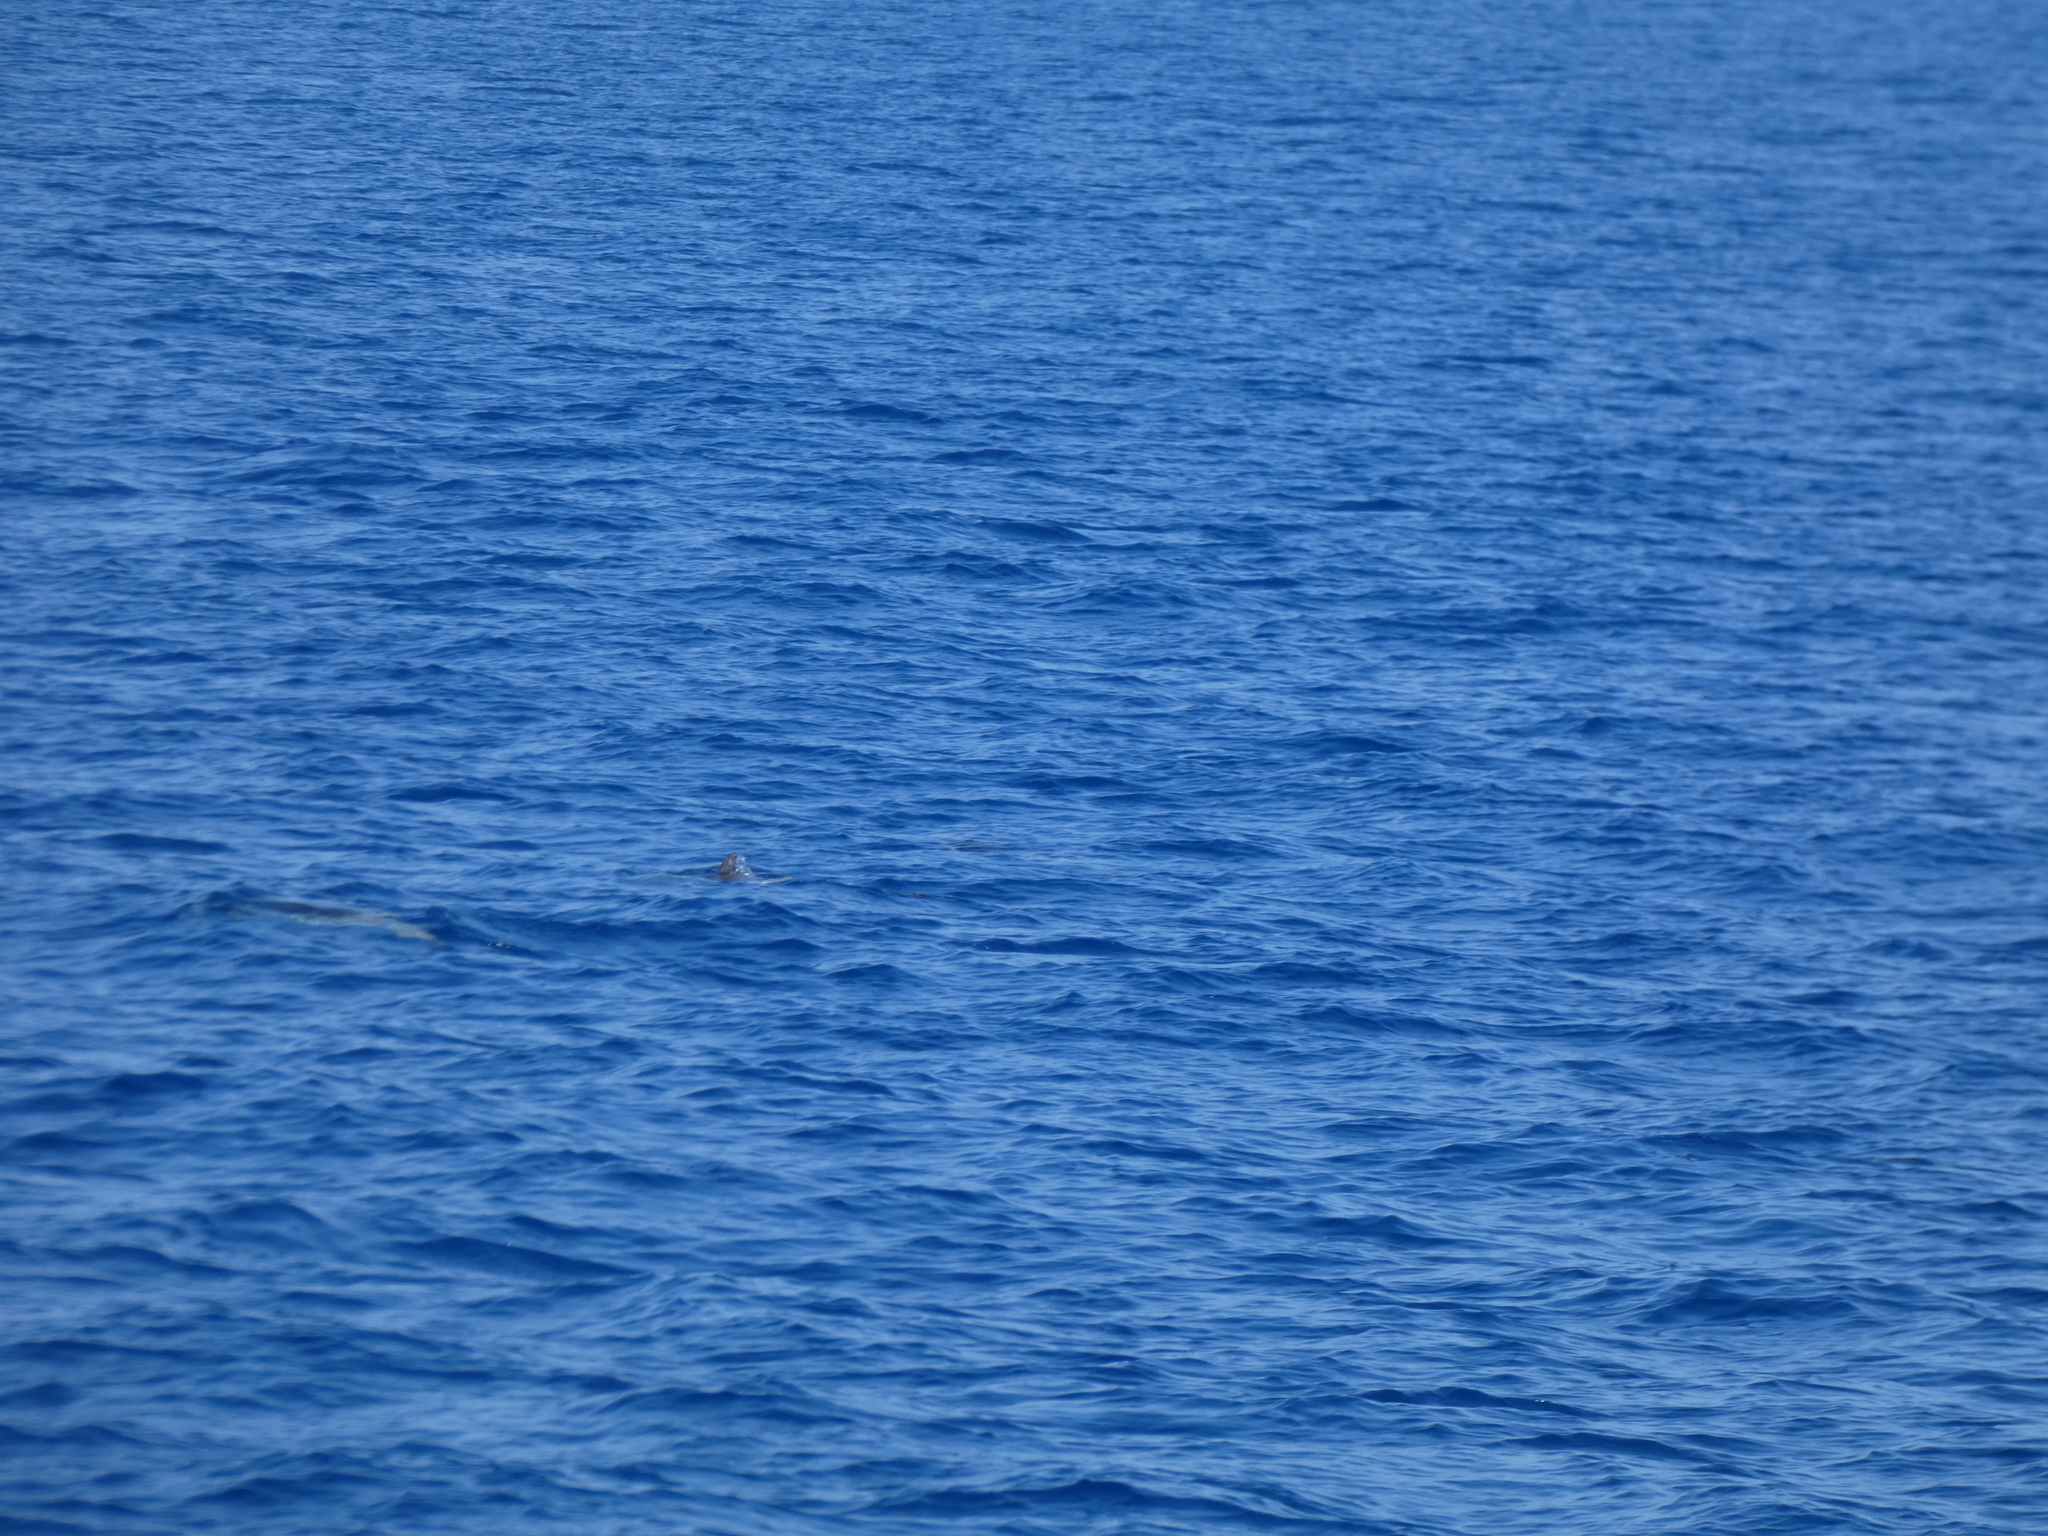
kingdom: Animalia
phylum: Chordata
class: Mammalia
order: Cetacea
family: Delphinidae
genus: Stenella
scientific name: Stenella coeruleoalba
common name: Striped dolphin
